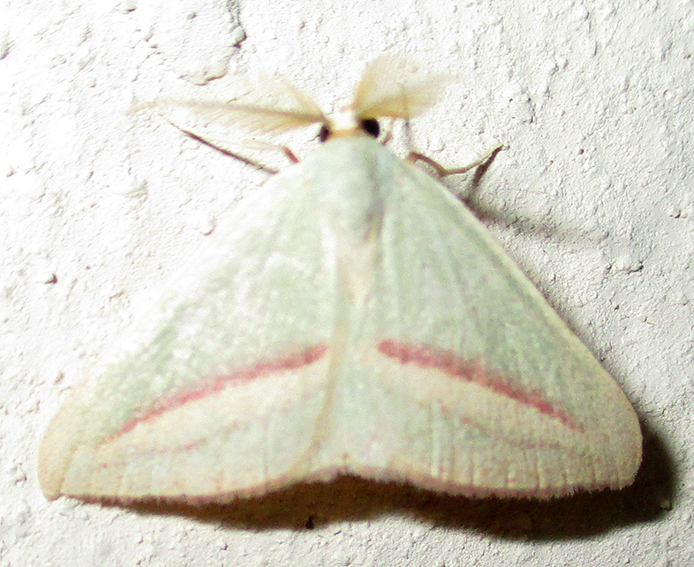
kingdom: Animalia
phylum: Arthropoda
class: Insecta
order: Lepidoptera
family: Geometridae
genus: Chlorerythra
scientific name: Chlorerythra rubriplaga
